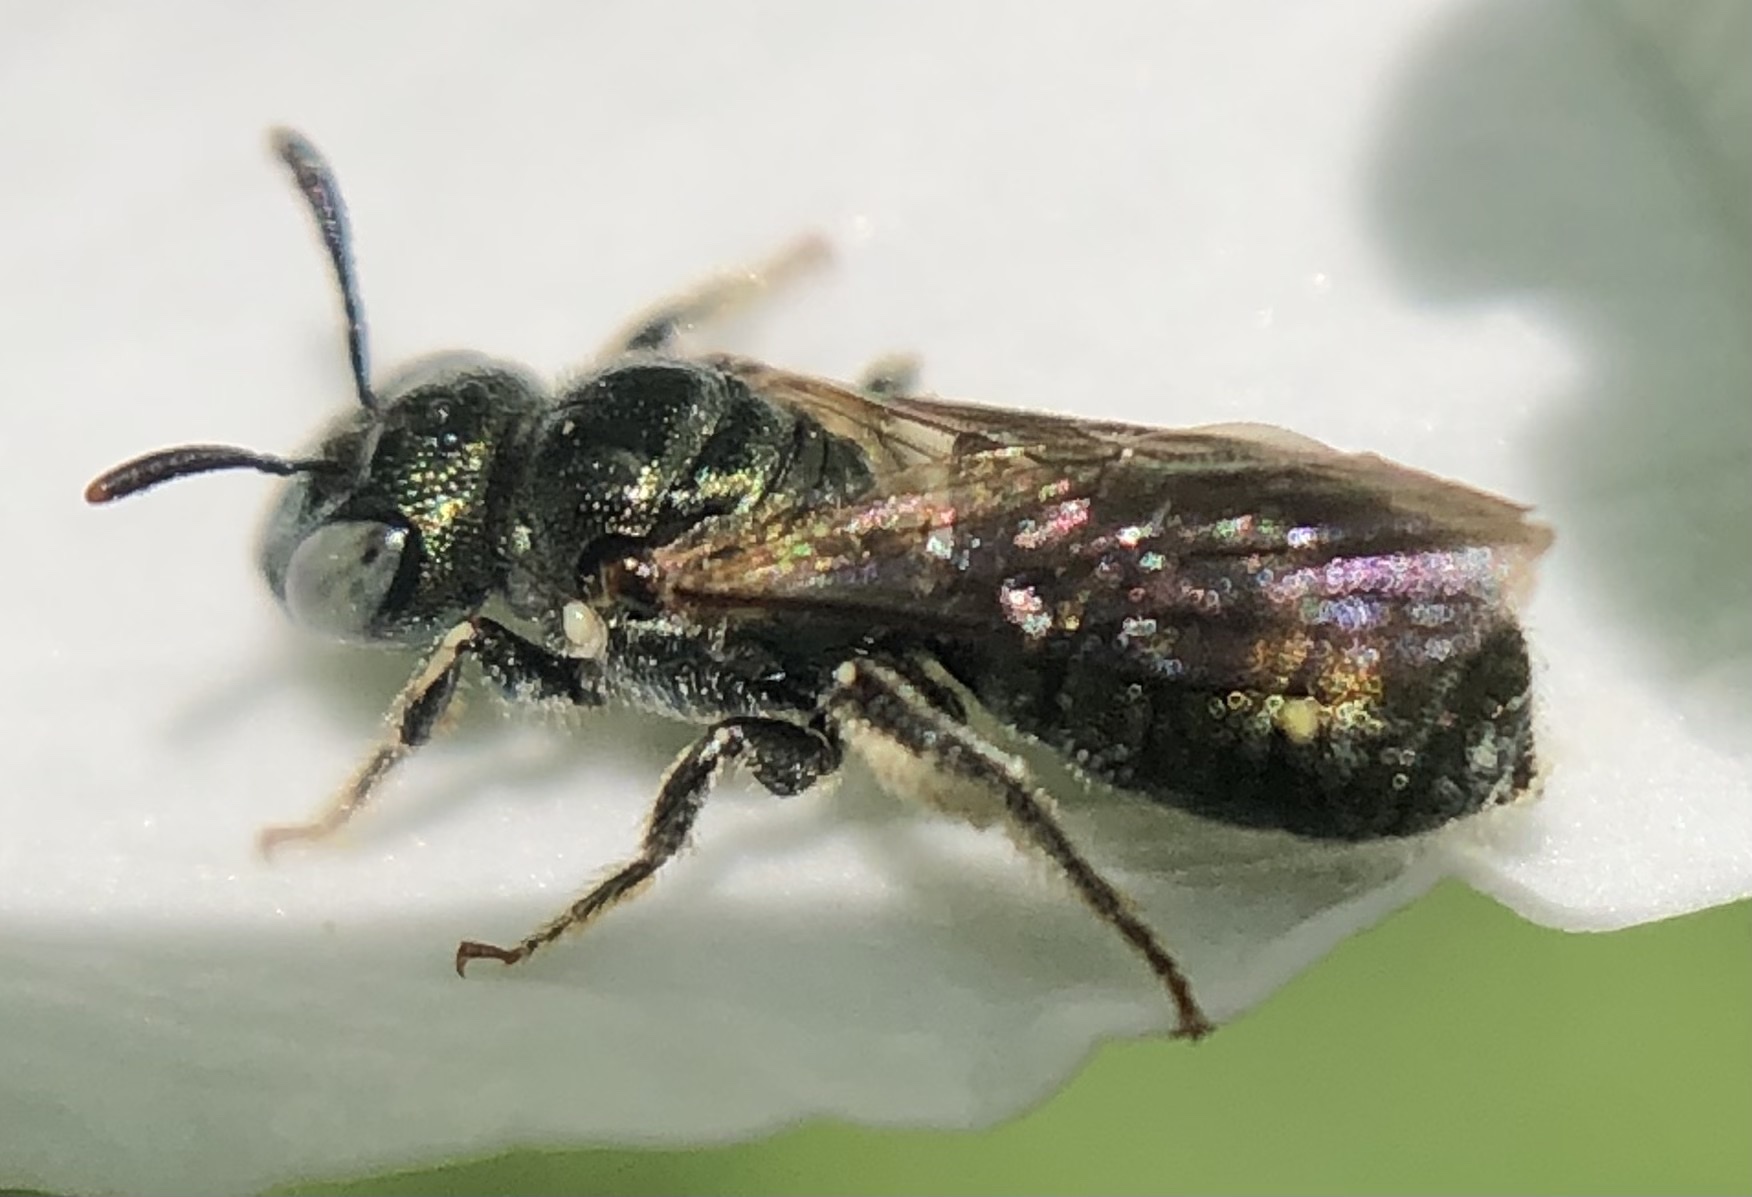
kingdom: Animalia
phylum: Arthropoda
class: Insecta
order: Hymenoptera
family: Apidae
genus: Ceratina
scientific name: Ceratina strenua
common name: Nimble carpenter bee
